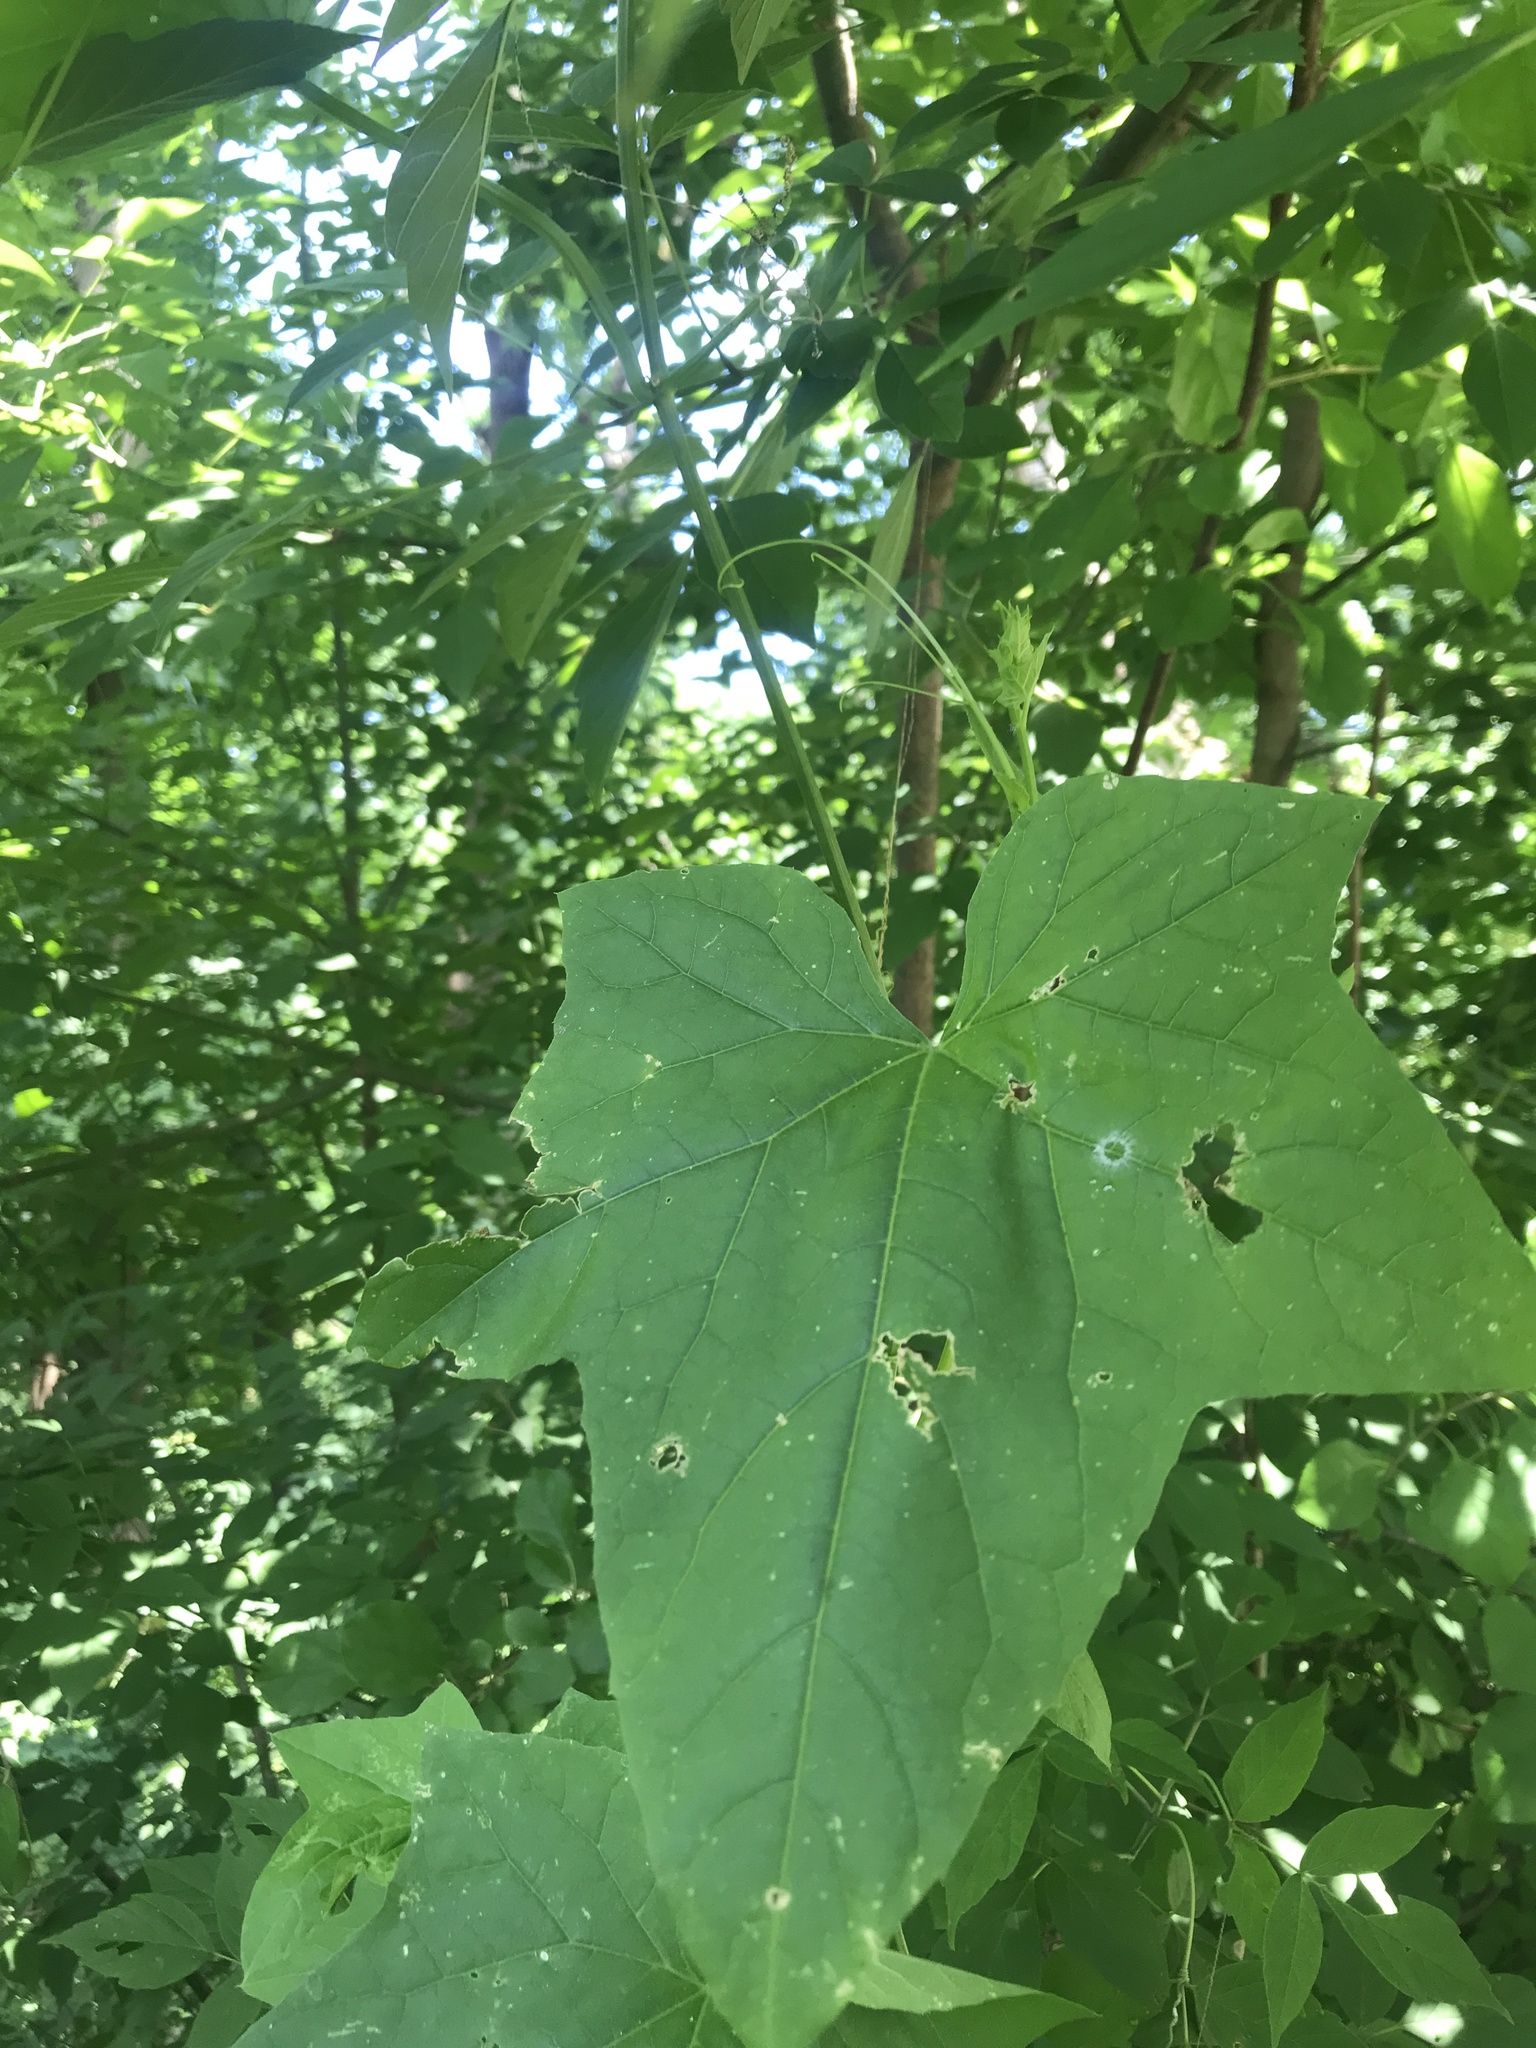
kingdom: Plantae
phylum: Tracheophyta
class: Magnoliopsida
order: Cucurbitales
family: Cucurbitaceae
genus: Echinocystis
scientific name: Echinocystis lobata
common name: Wild cucumber
